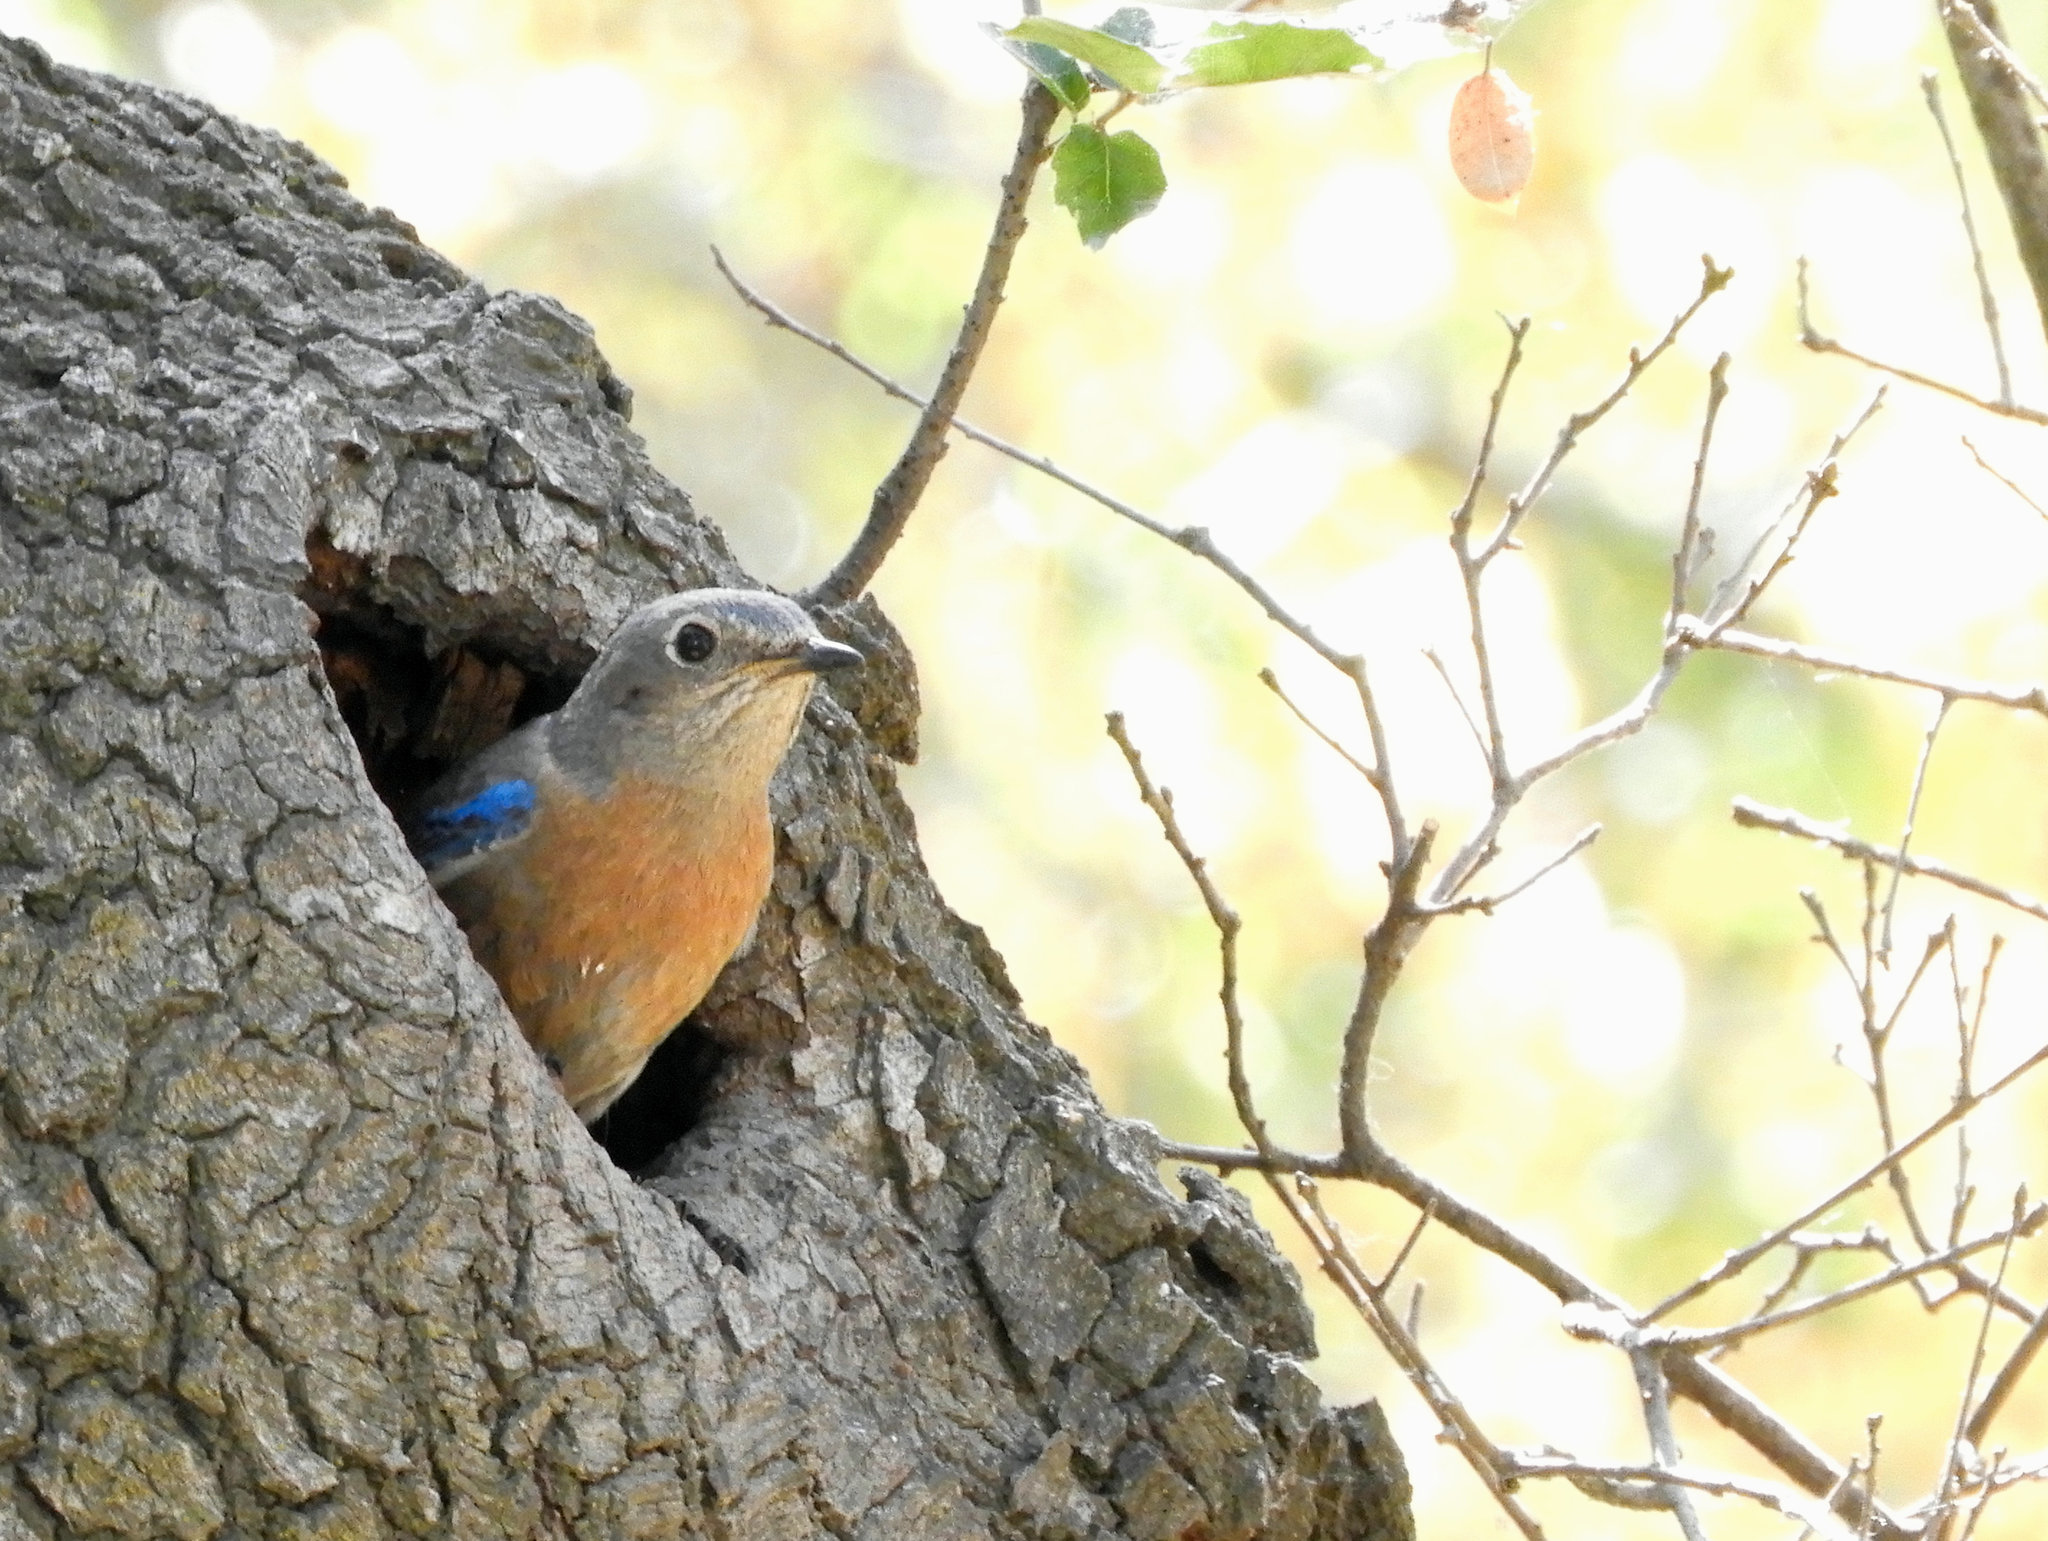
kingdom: Animalia
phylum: Chordata
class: Aves
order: Passeriformes
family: Turdidae
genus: Sialia
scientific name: Sialia mexicana
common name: Western bluebird
